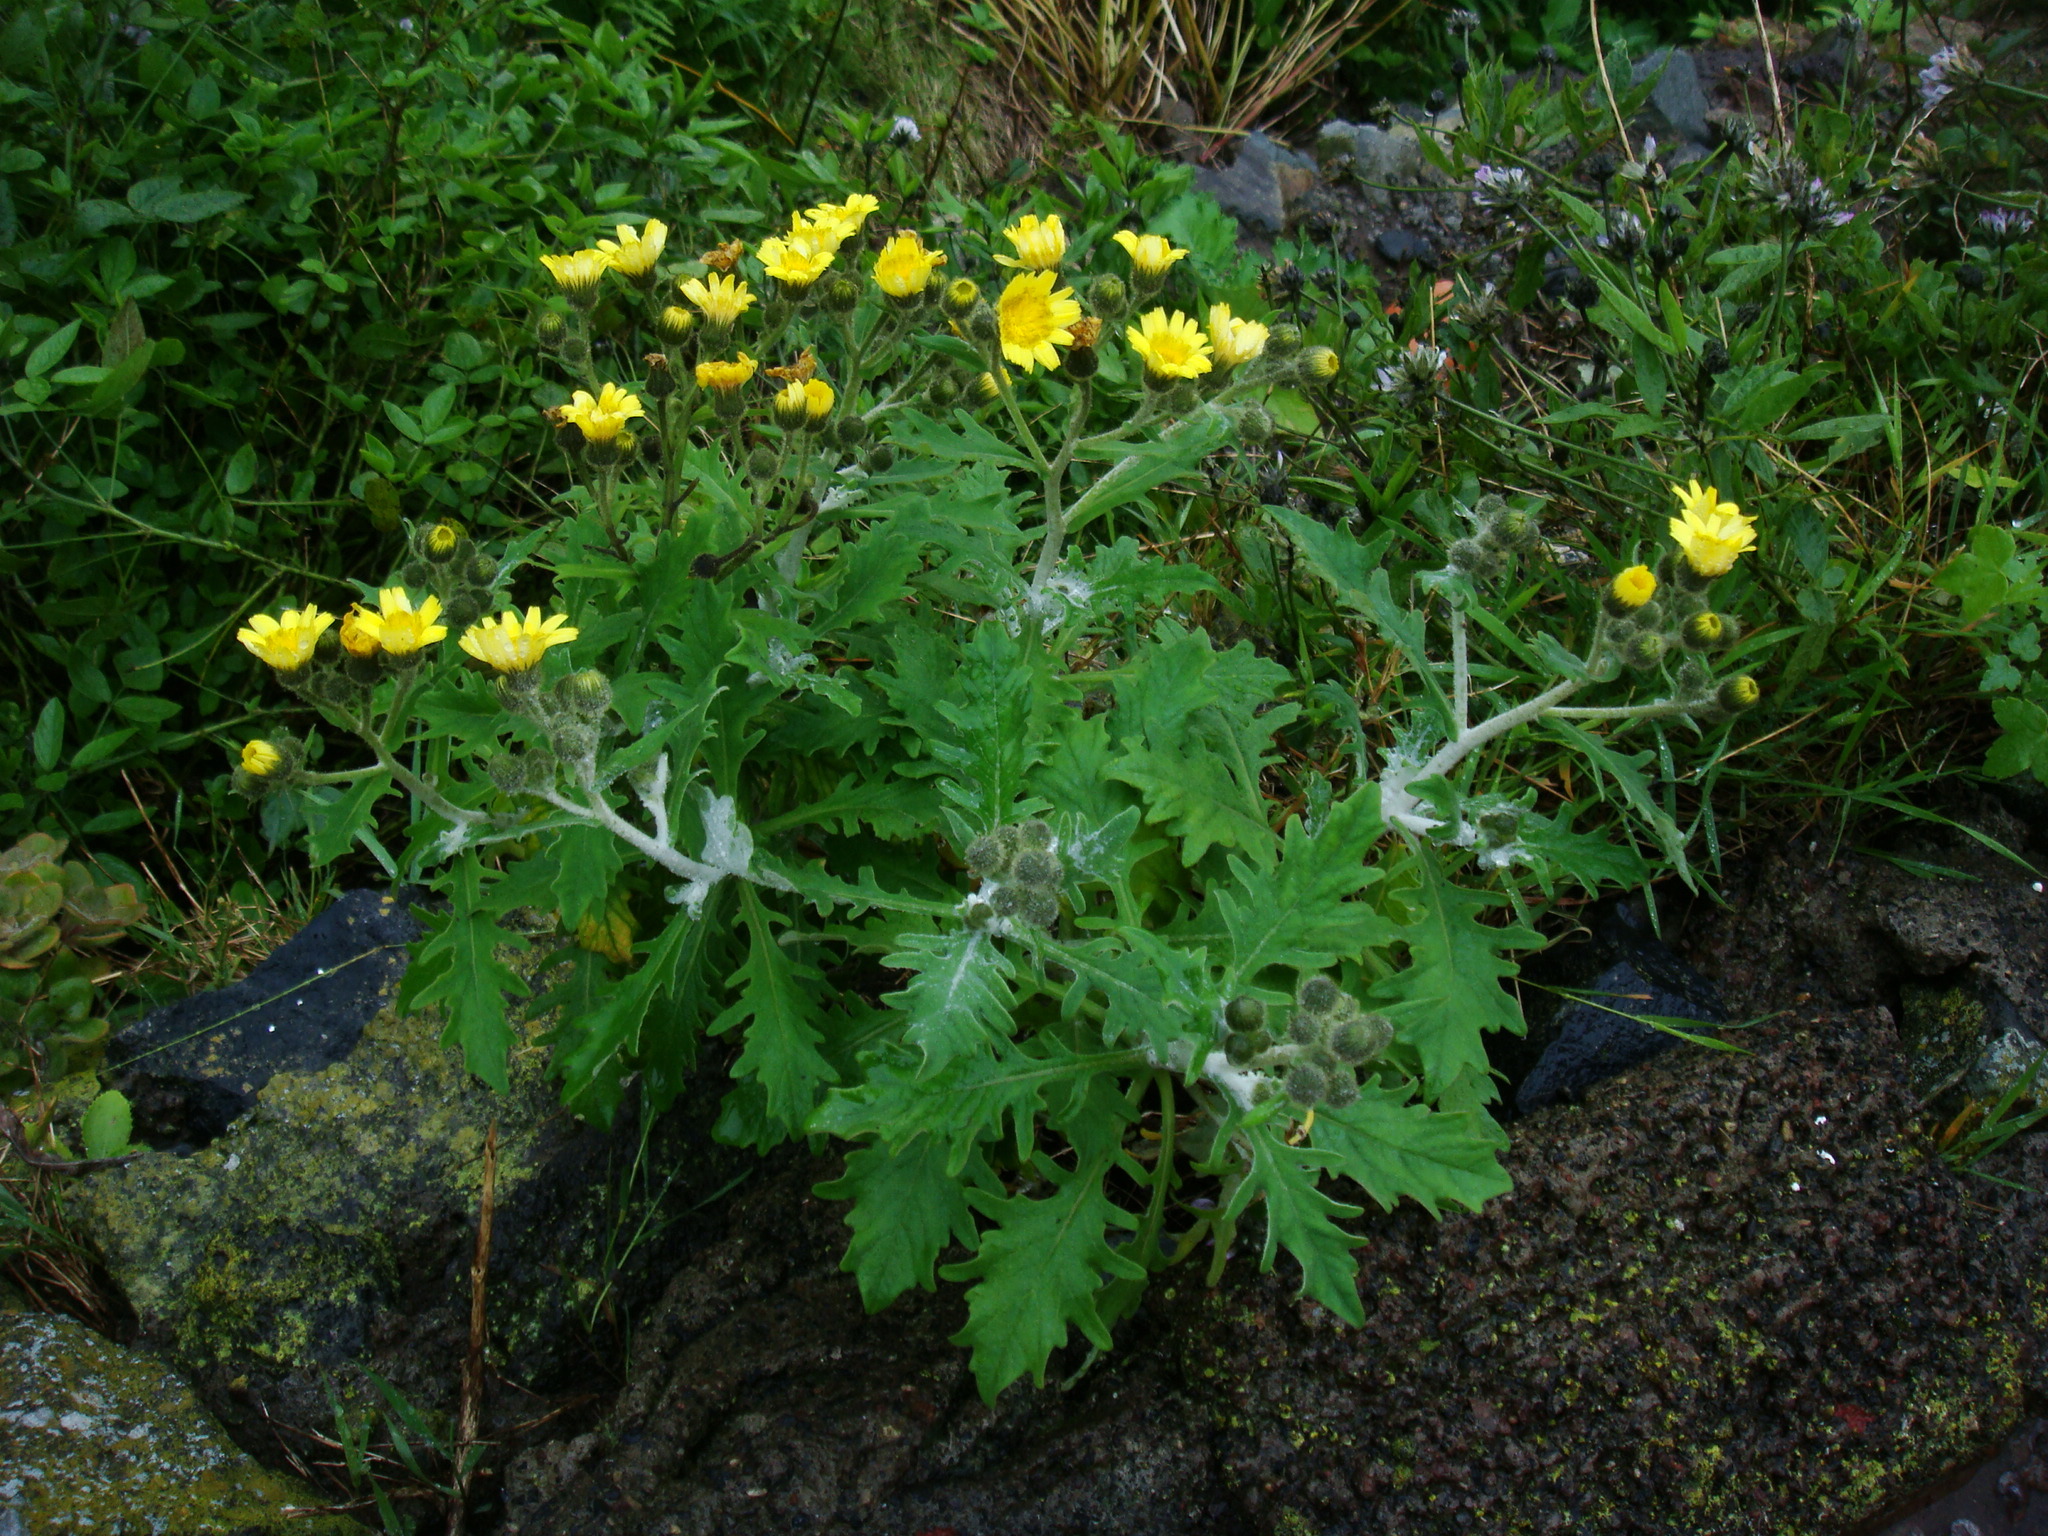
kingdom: Plantae
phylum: Tracheophyta
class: Magnoliopsida
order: Asterales
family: Asteraceae
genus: Andryala
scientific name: Andryala pinnatifida
